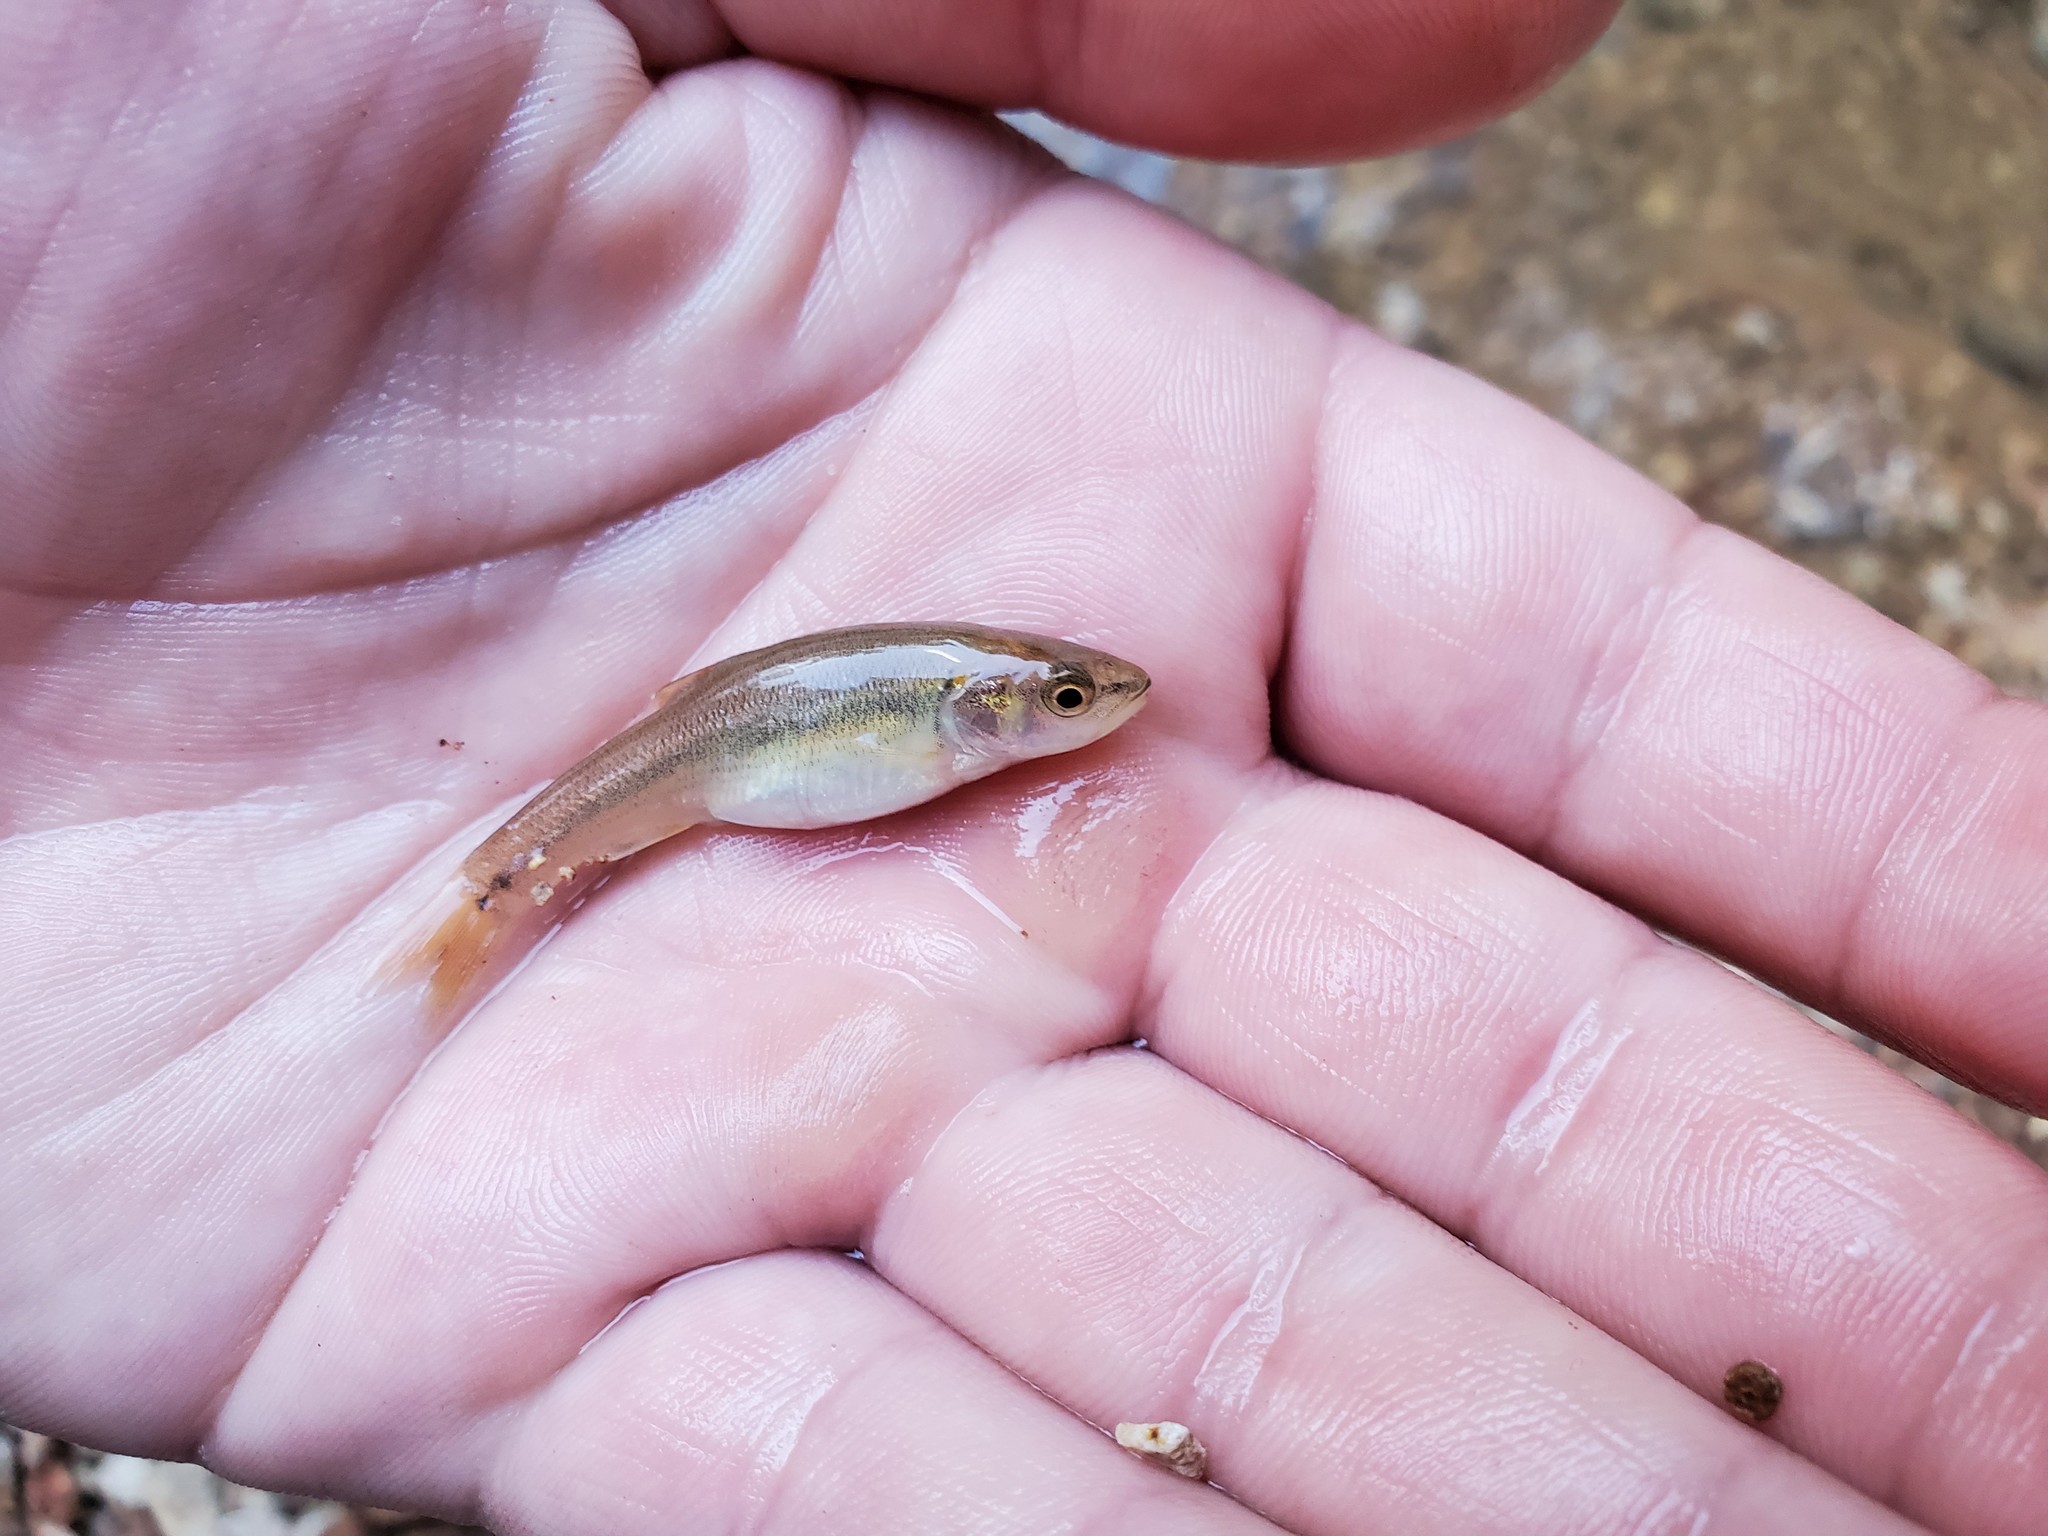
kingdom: Animalia
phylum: Chordata
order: Cypriniformes
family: Cyprinidae
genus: Semotilus
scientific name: Semotilus atromaculatus
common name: Creek chub
